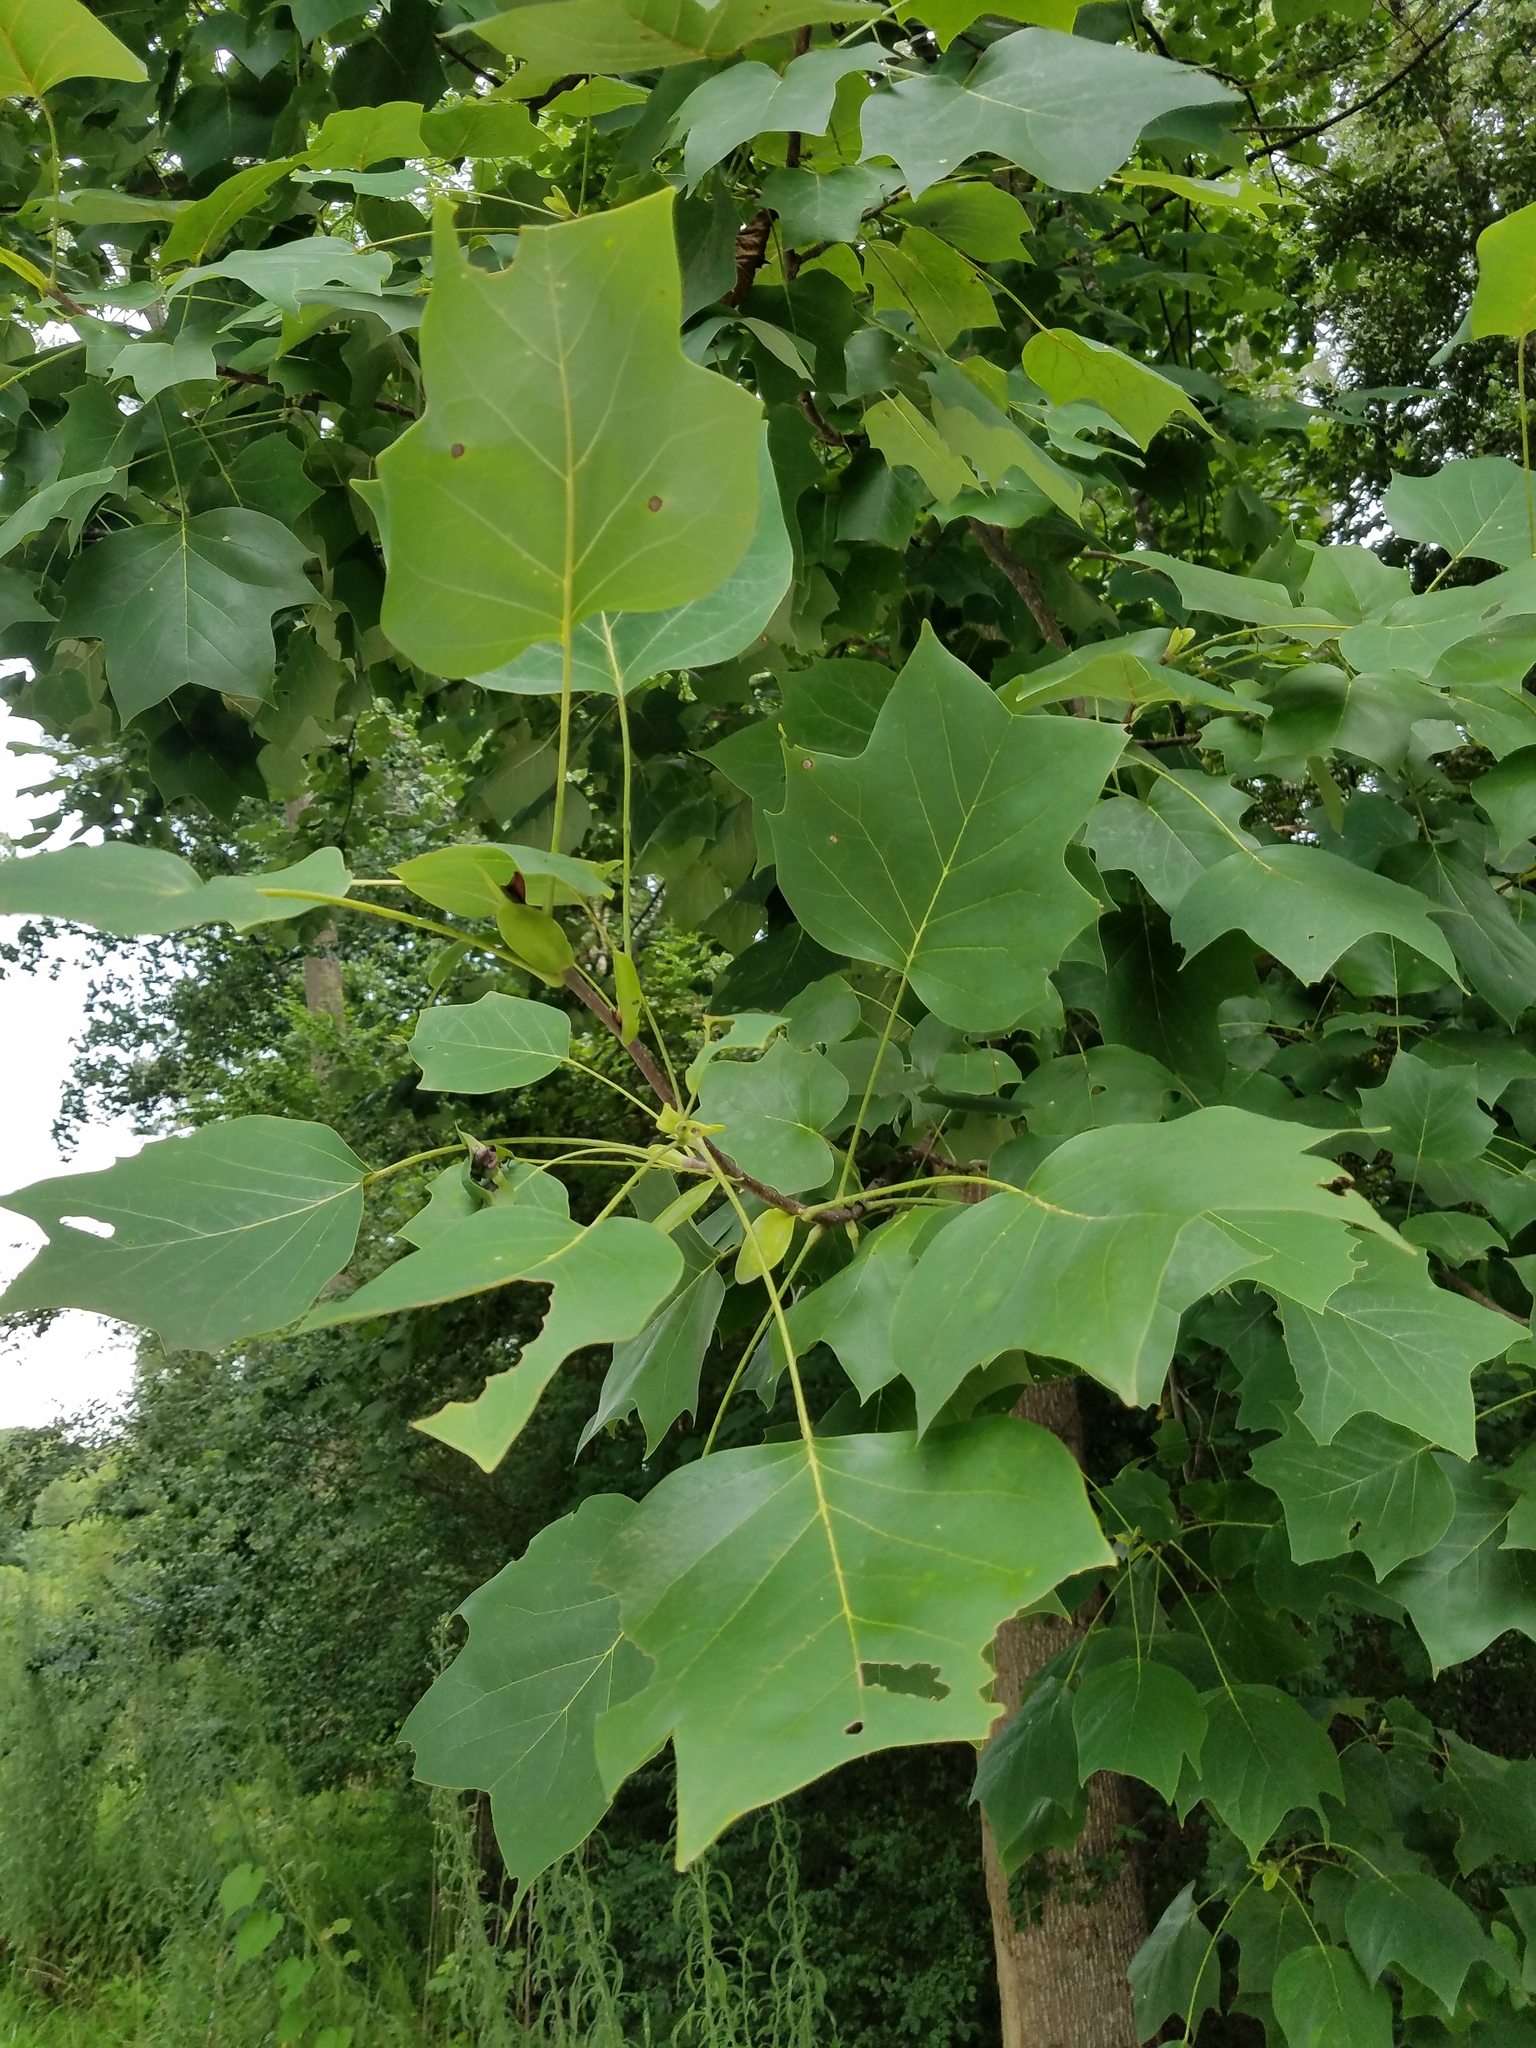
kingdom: Plantae
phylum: Tracheophyta
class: Magnoliopsida
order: Magnoliales
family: Magnoliaceae
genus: Liriodendron
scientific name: Liriodendron tulipifera
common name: Tulip tree
